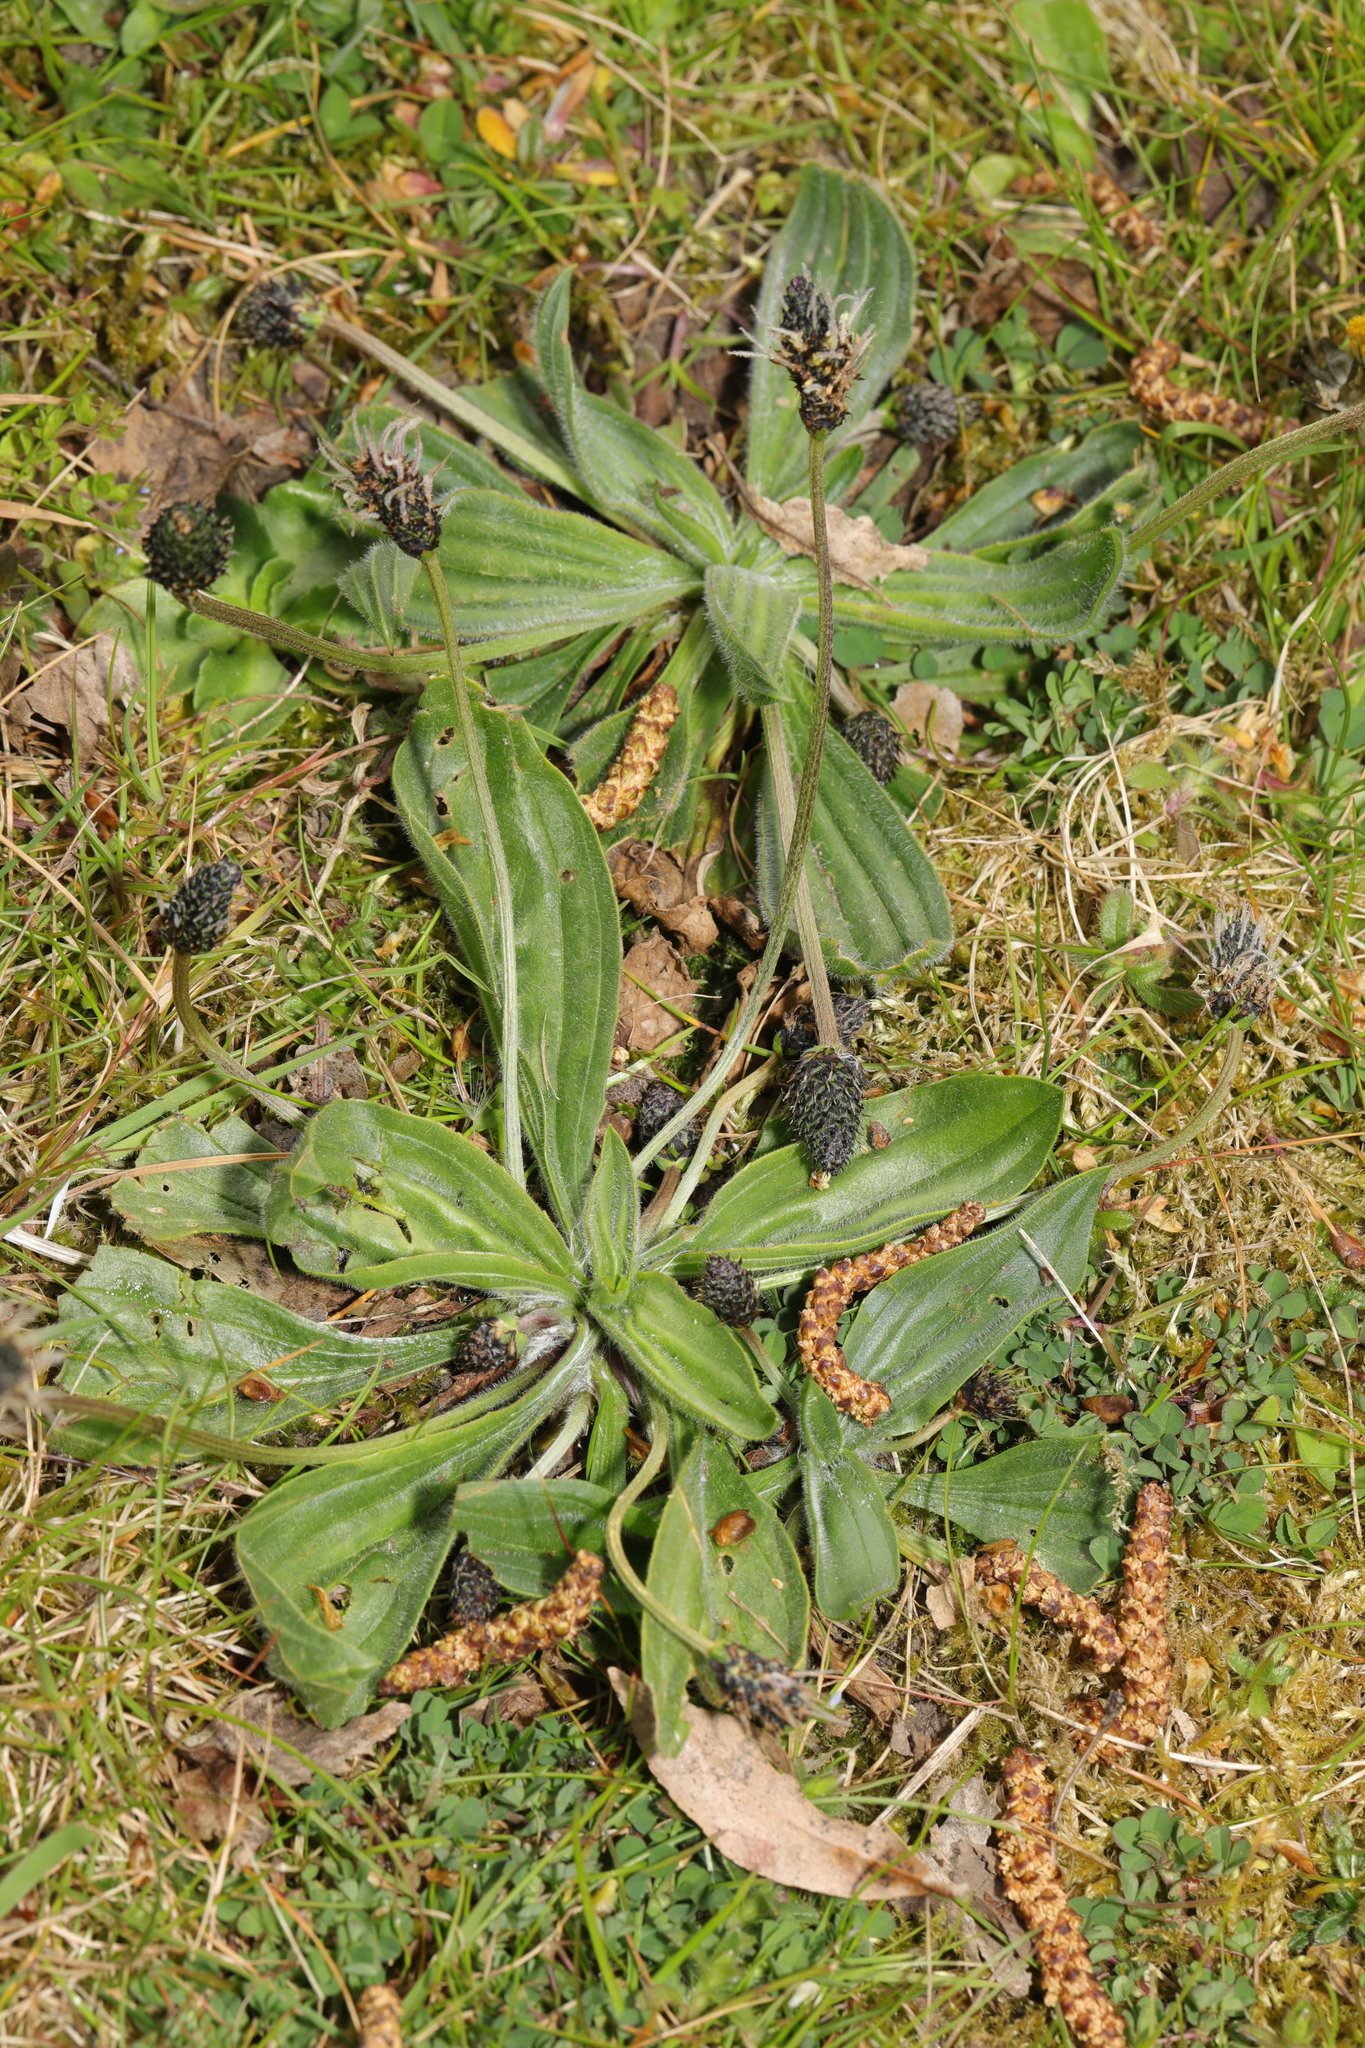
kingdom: Plantae
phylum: Tracheophyta
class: Magnoliopsida
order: Lamiales
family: Plantaginaceae
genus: Plantago
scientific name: Plantago media
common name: Hoary plantain
